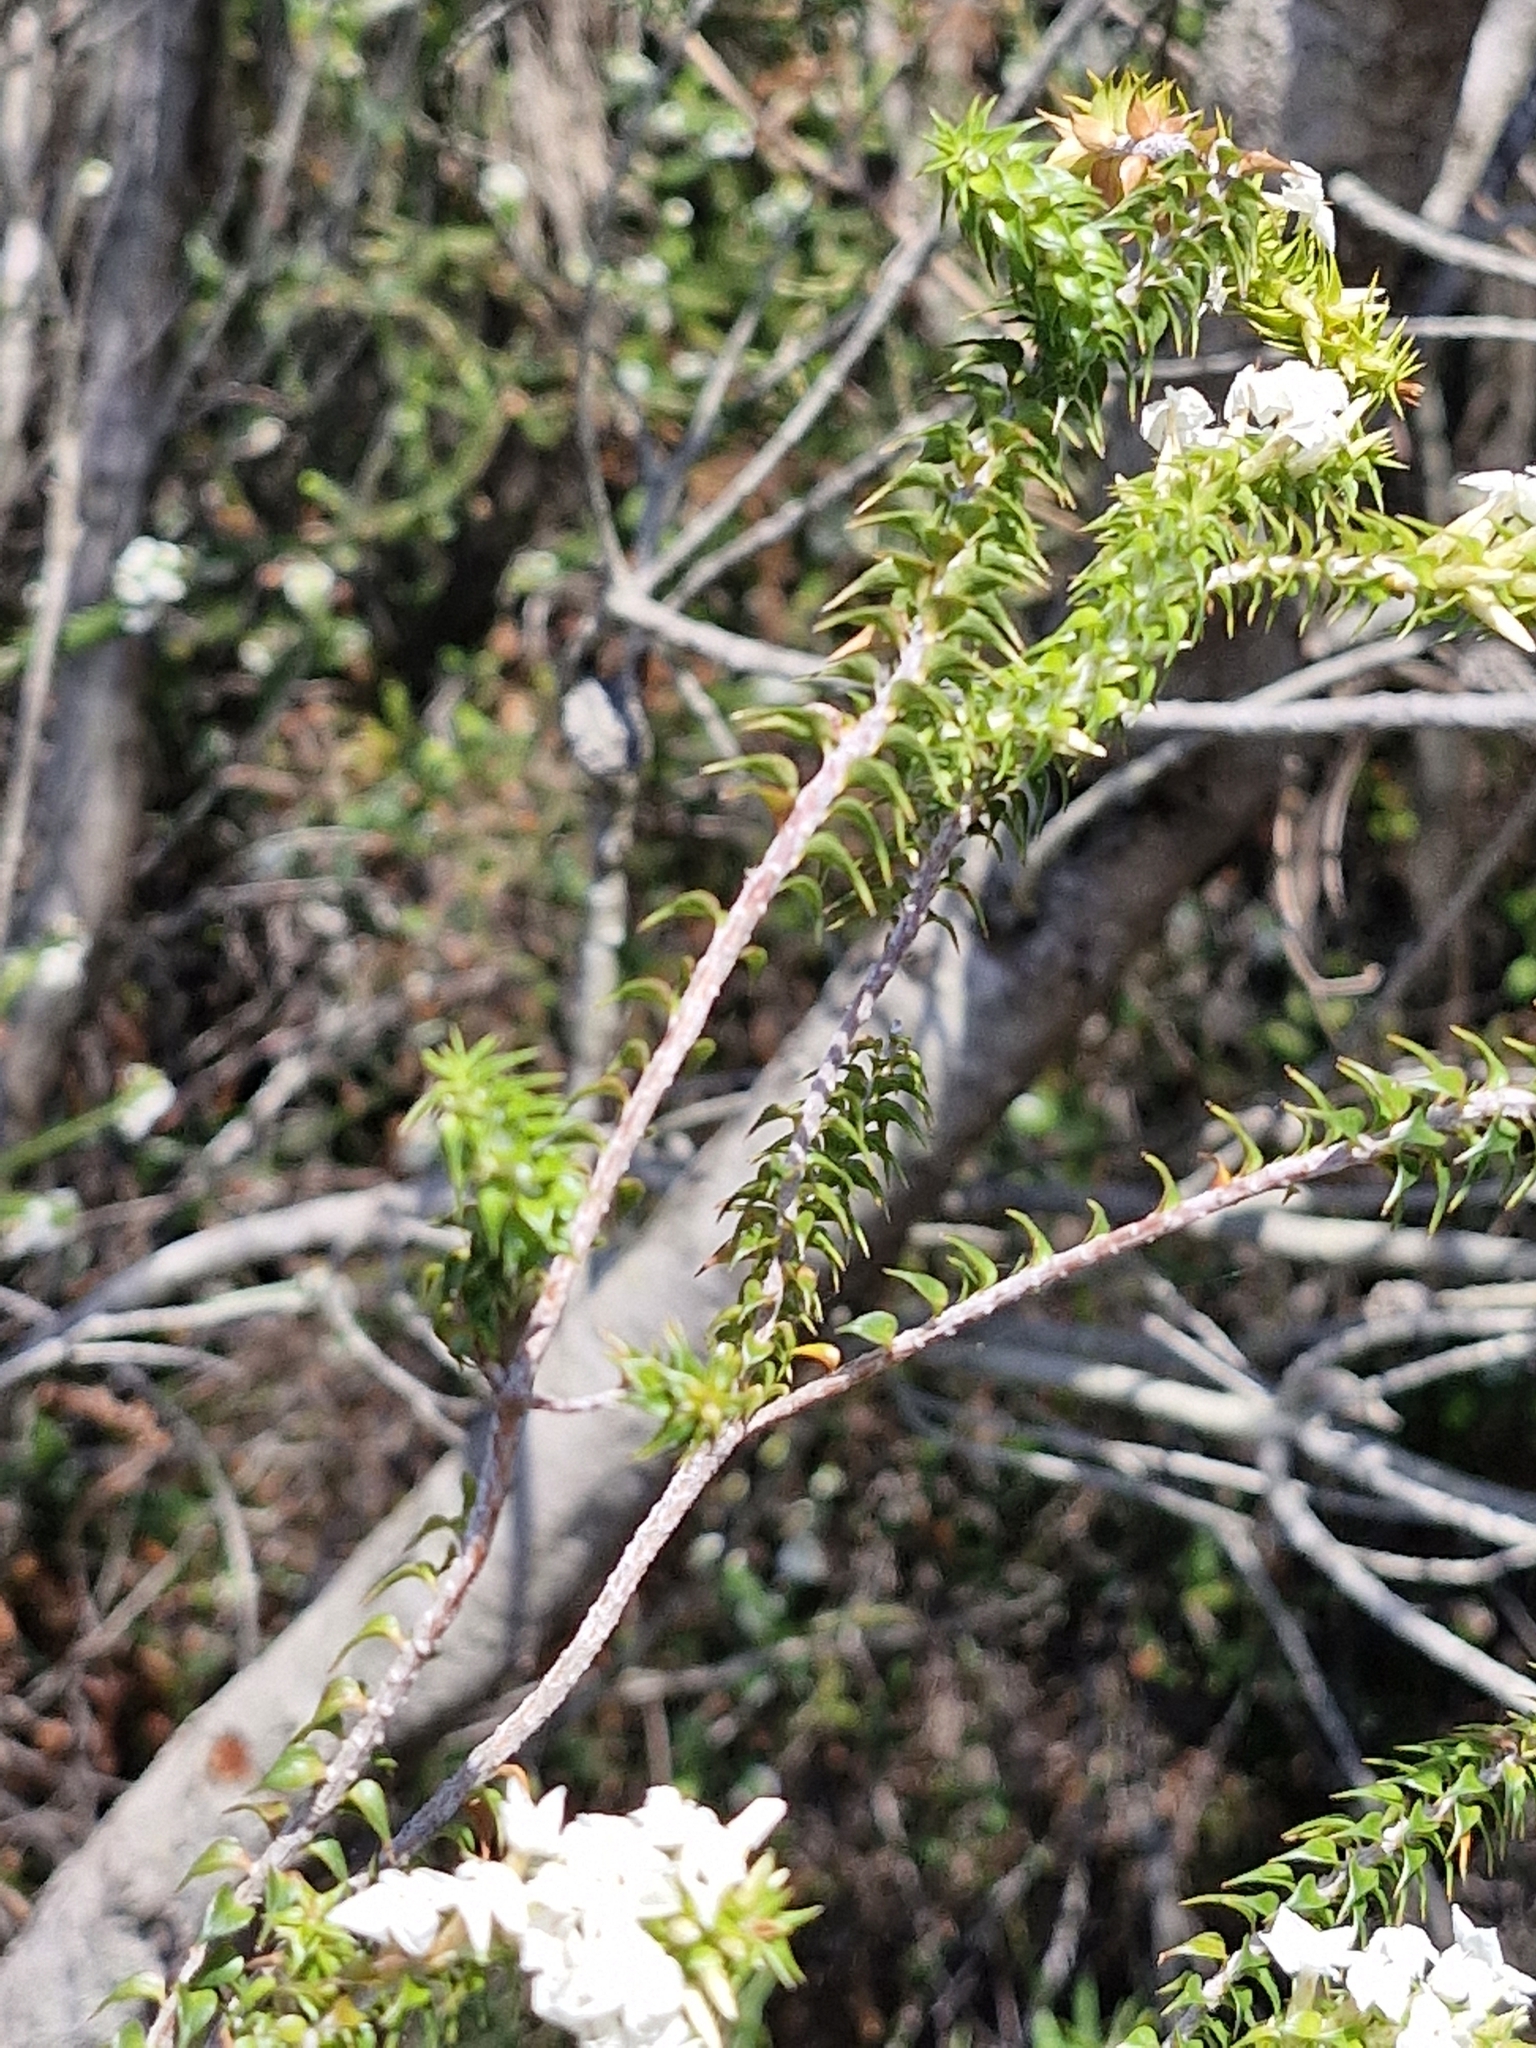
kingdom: Plantae
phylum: Tracheophyta
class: Magnoliopsida
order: Ericales
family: Ericaceae
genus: Woollsia
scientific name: Woollsia pungens
